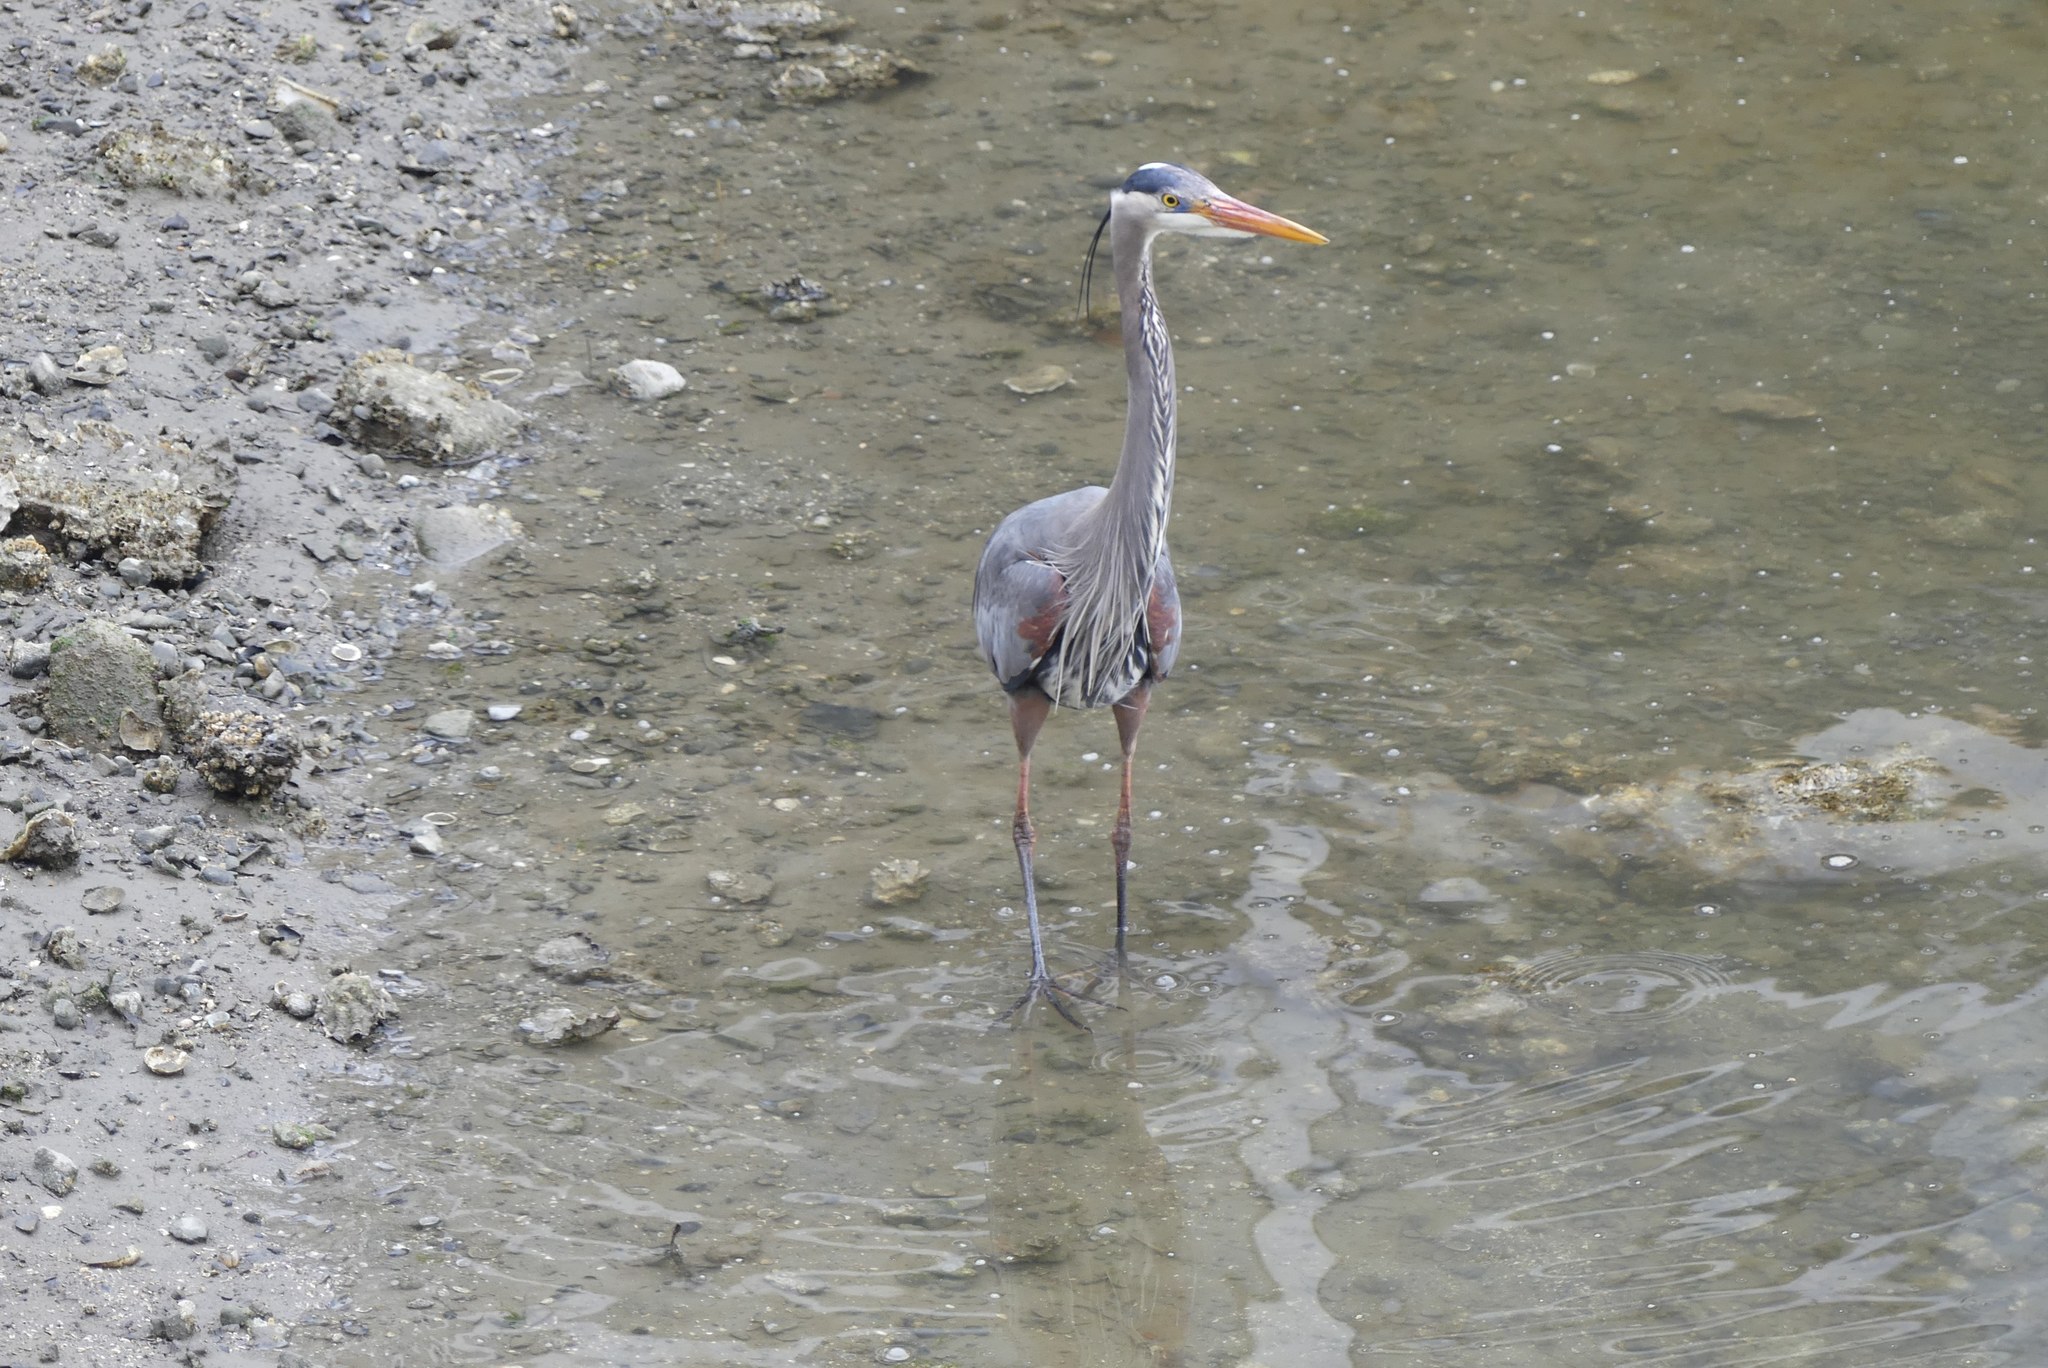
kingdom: Animalia
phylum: Chordata
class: Aves
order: Pelecaniformes
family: Ardeidae
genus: Ardea
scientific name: Ardea herodias
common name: Great blue heron
